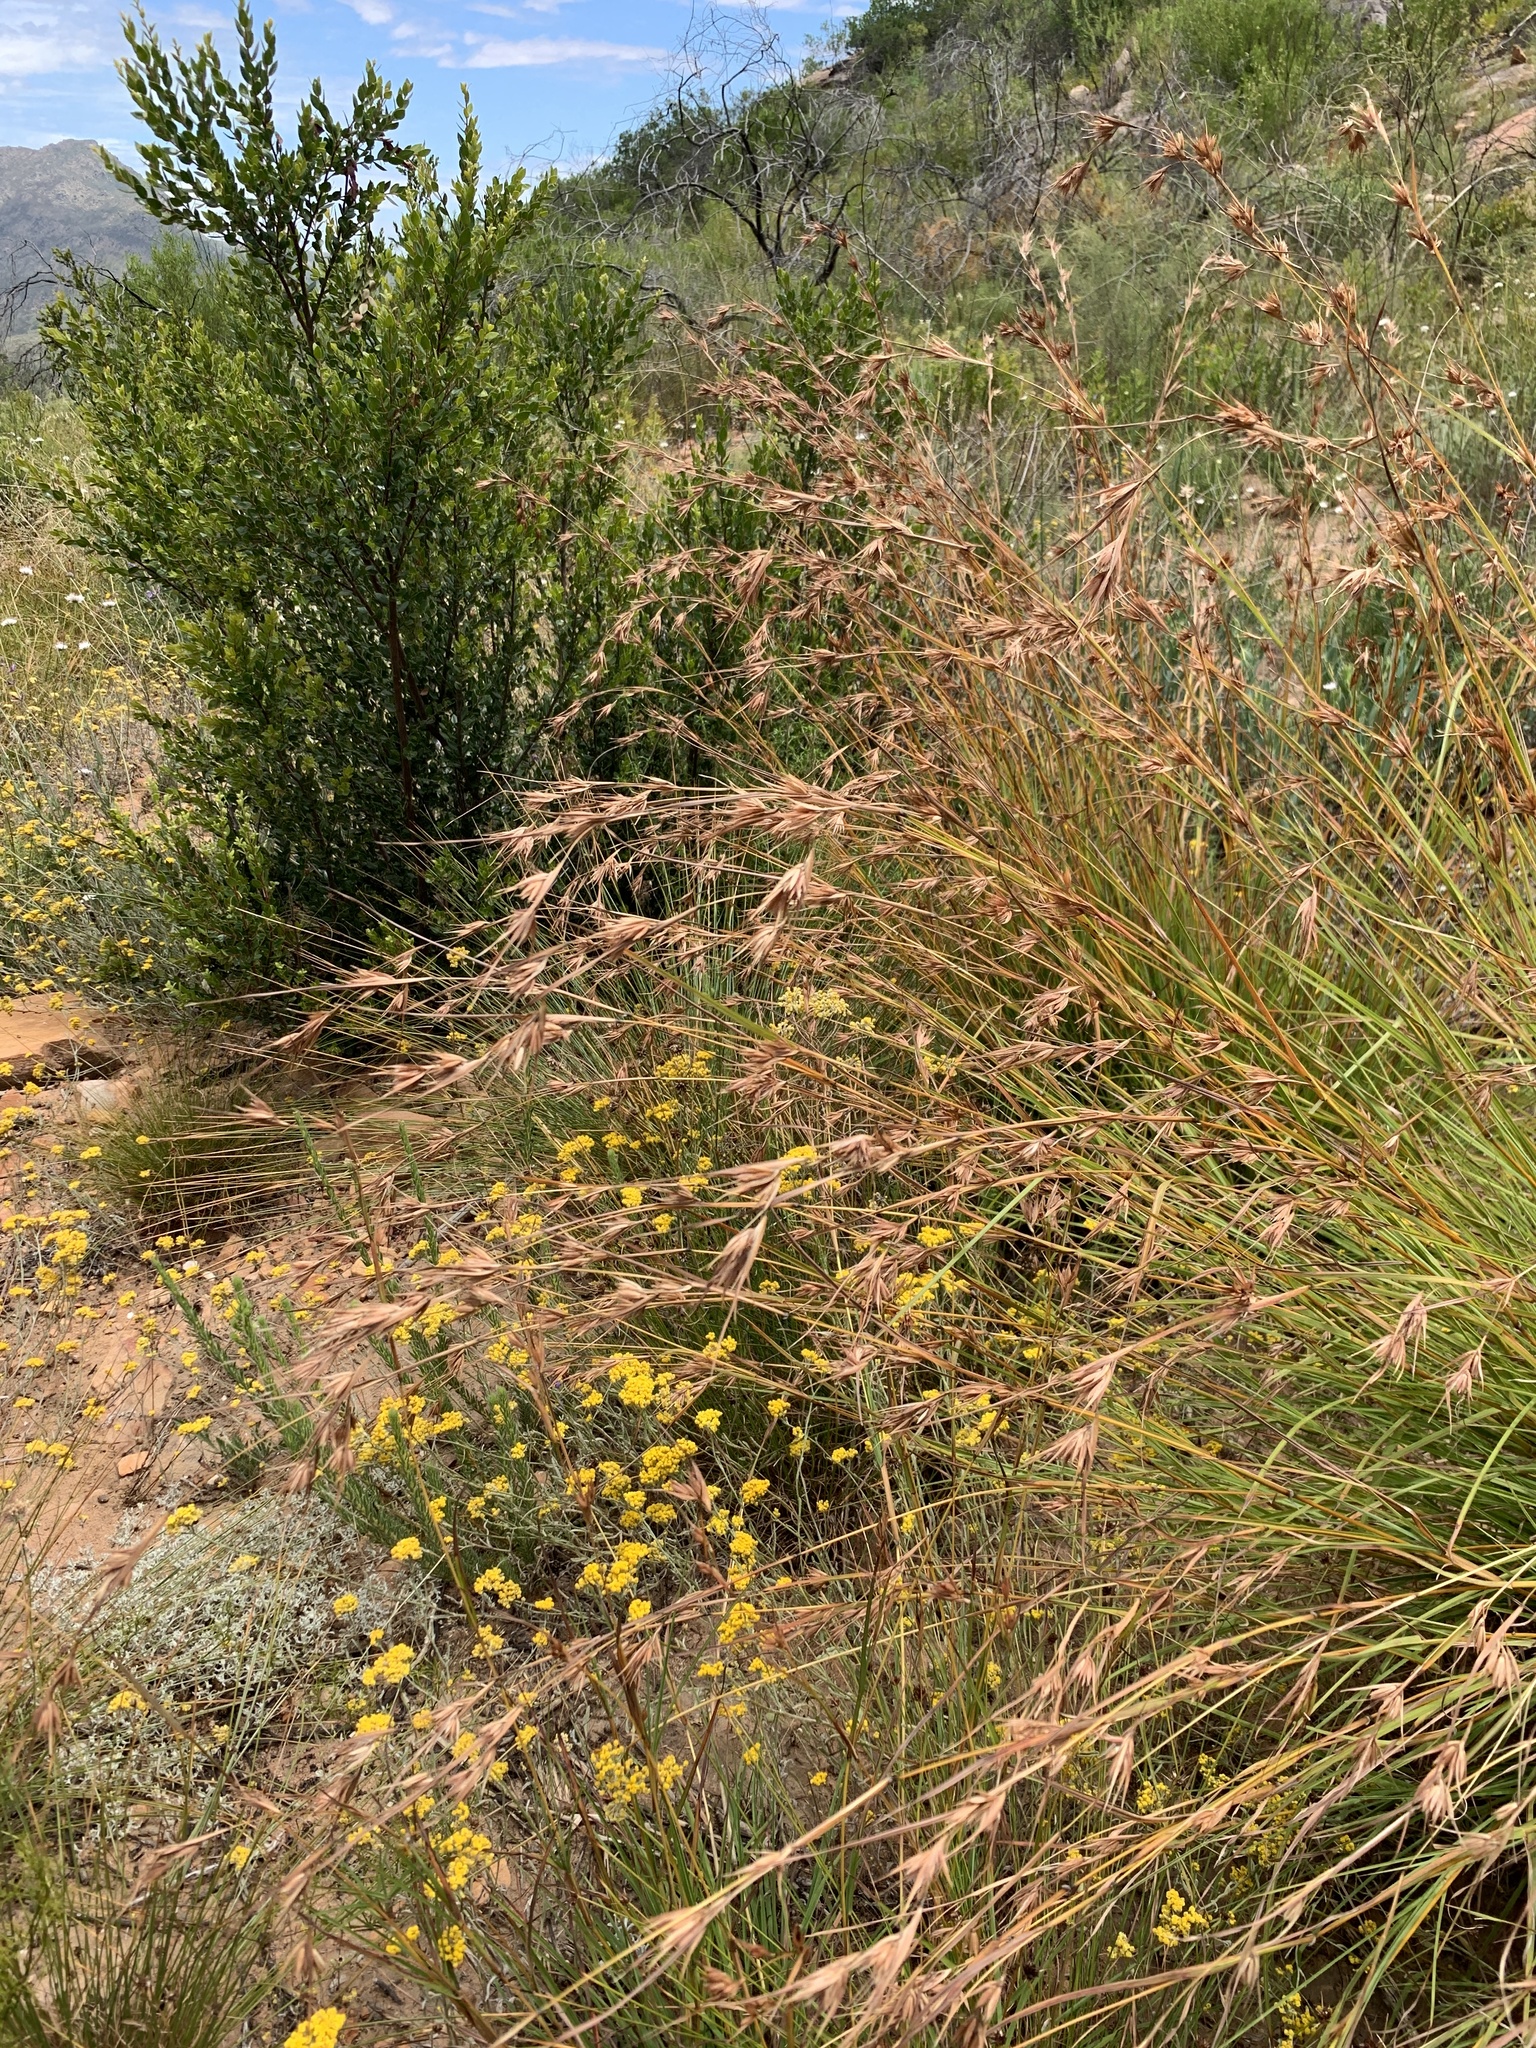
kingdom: Plantae
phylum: Tracheophyta
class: Liliopsida
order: Poales
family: Poaceae
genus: Themeda
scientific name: Themeda triandra
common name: Kangaroo grass
